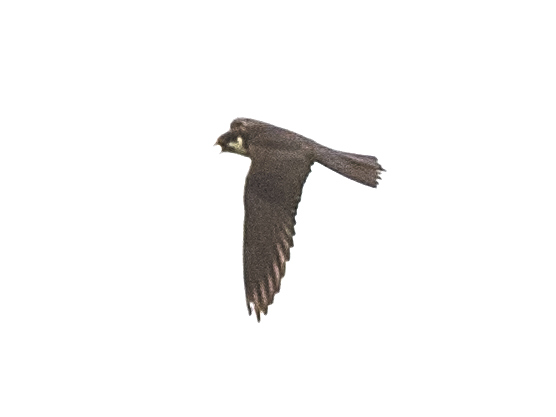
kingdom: Animalia
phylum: Chordata
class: Aves
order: Falconiformes
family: Falconidae
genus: Falco
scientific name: Falco subbuteo
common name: Eurasian hobby
